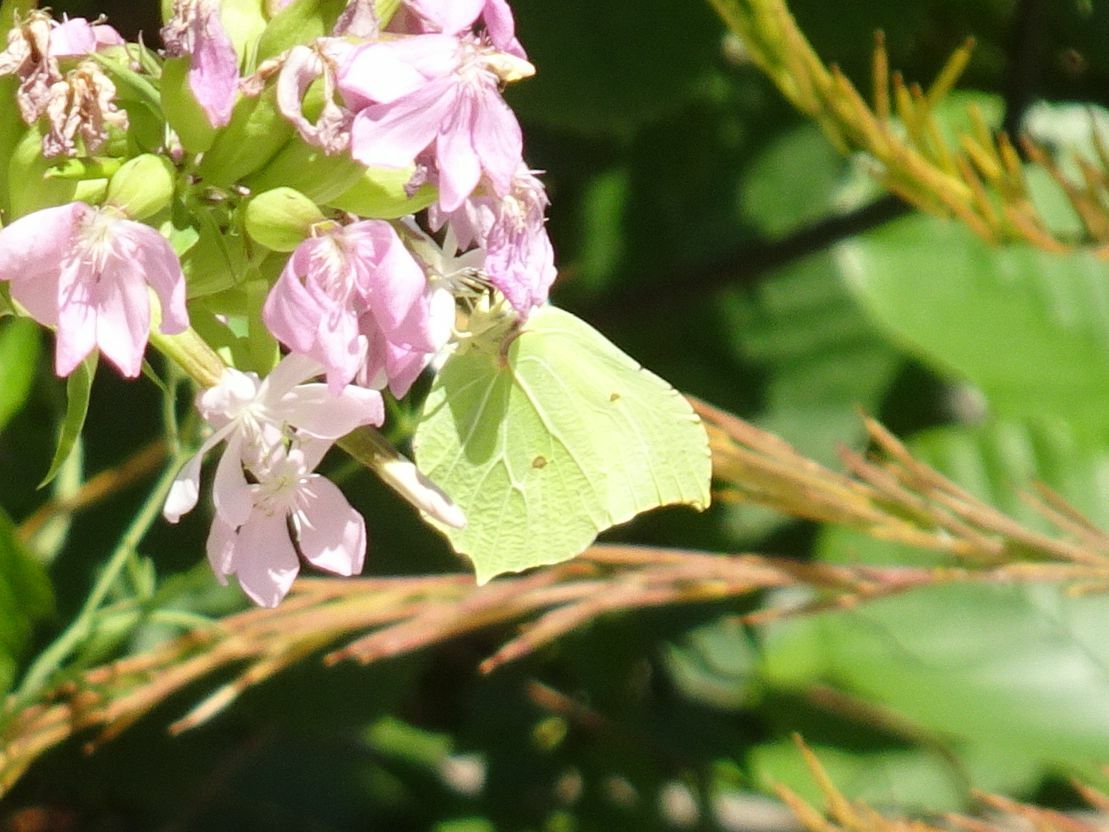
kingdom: Animalia
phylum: Arthropoda
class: Insecta
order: Lepidoptera
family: Pieridae
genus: Gonepteryx
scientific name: Gonepteryx rhamni
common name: Brimstone
